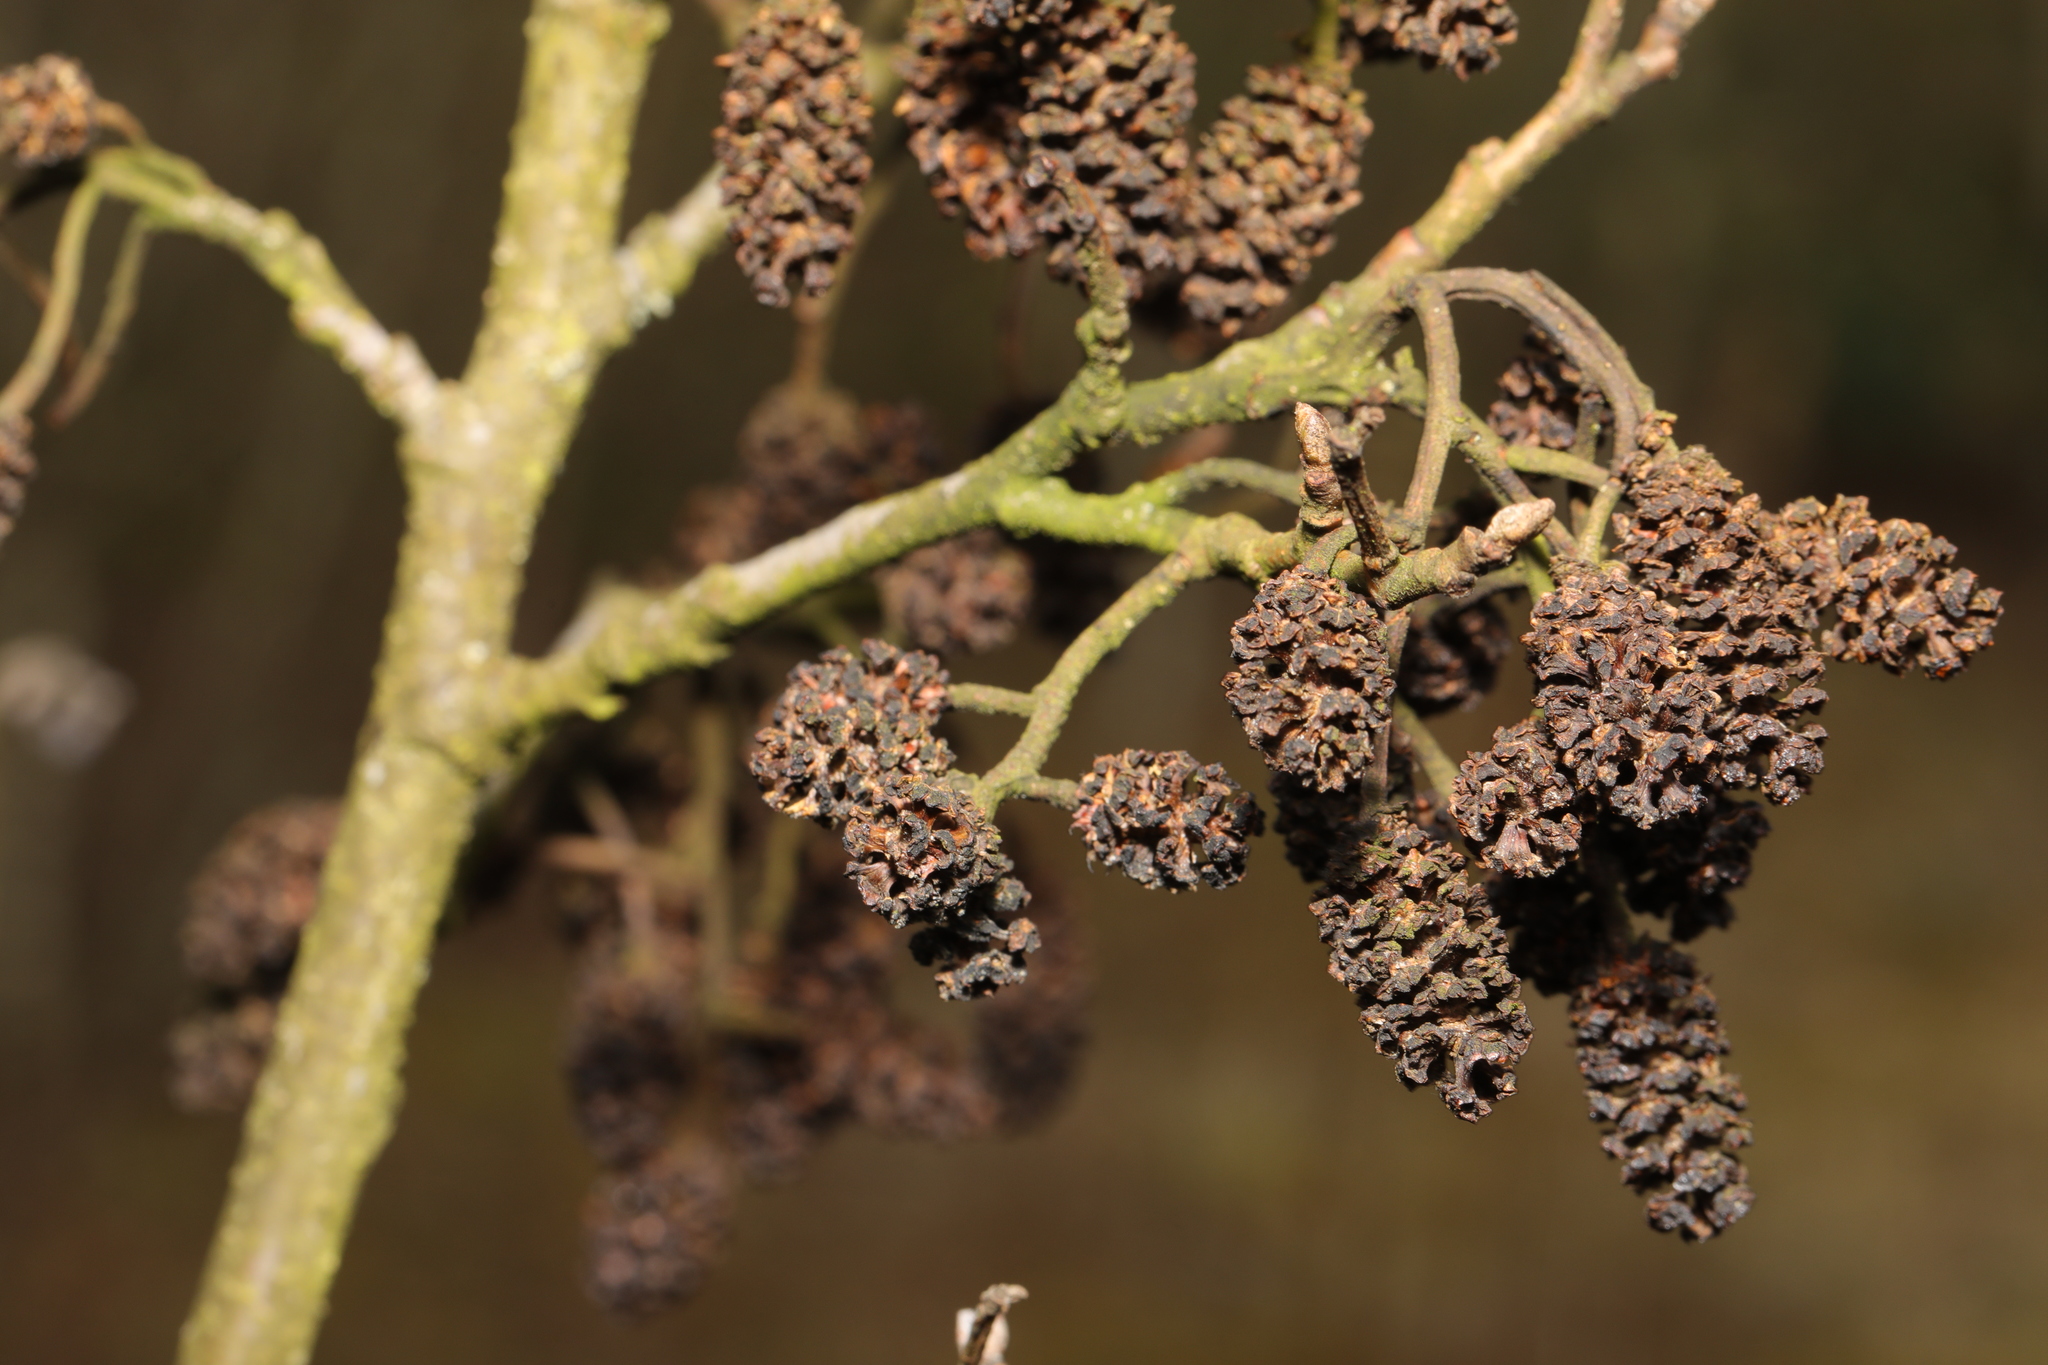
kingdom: Plantae
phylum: Tracheophyta
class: Magnoliopsida
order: Fagales
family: Betulaceae
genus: Alnus
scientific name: Alnus glutinosa
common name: Black alder
